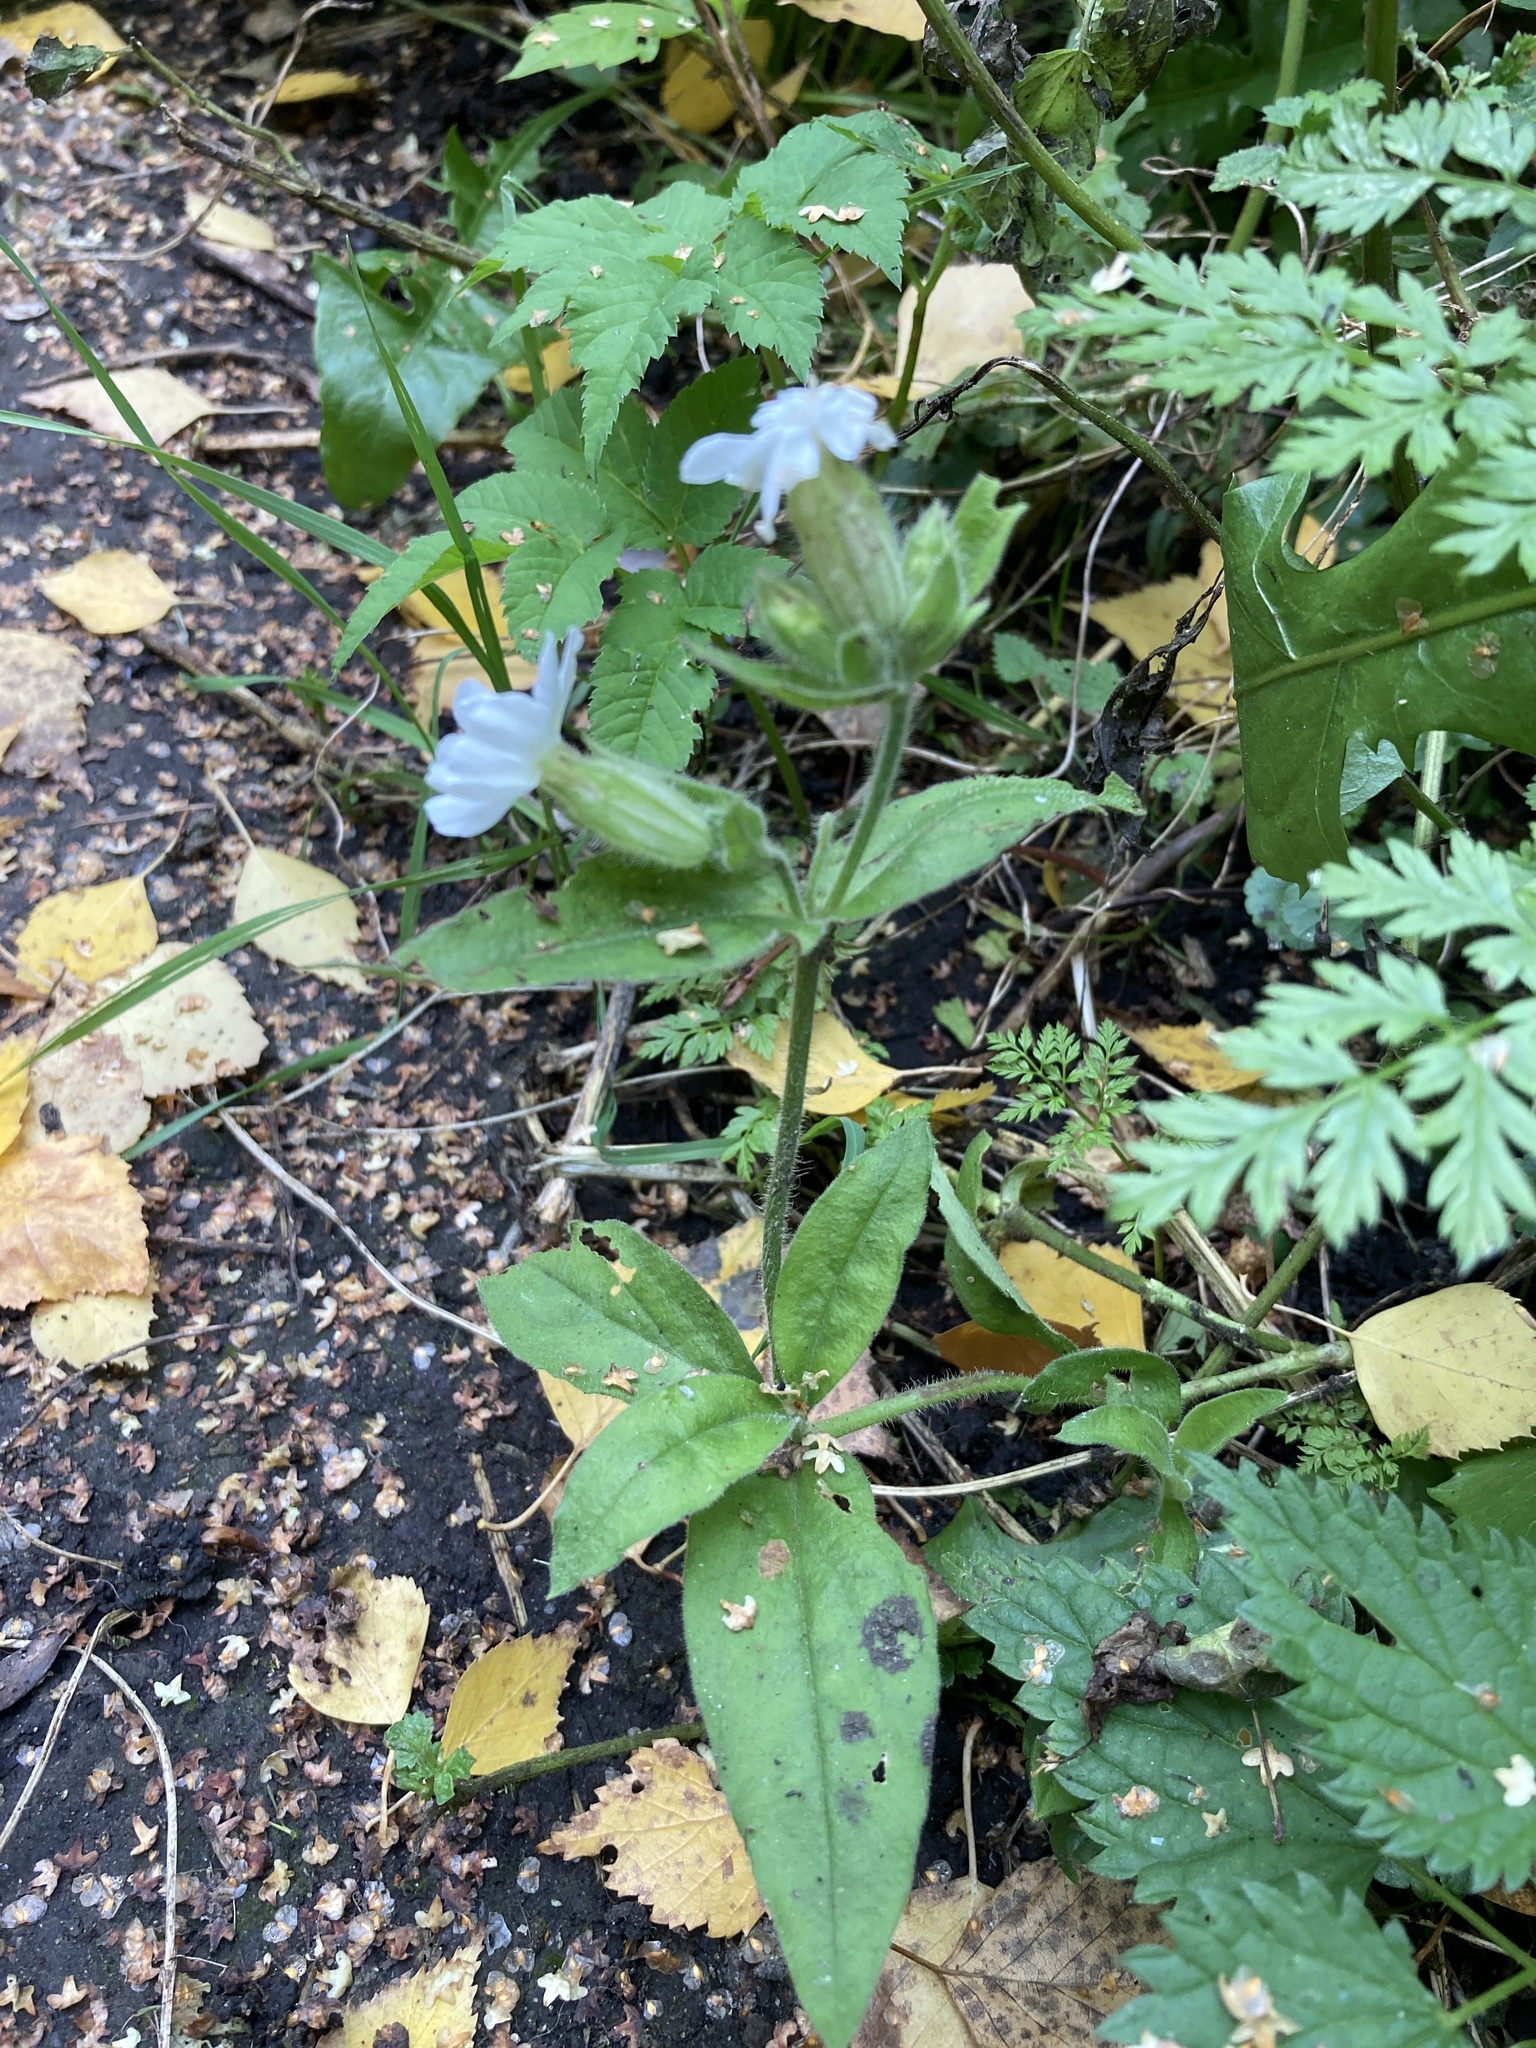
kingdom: Plantae
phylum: Tracheophyta
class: Magnoliopsida
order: Caryophyllales
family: Caryophyllaceae
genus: Silene
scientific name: Silene latifolia
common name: White campion
